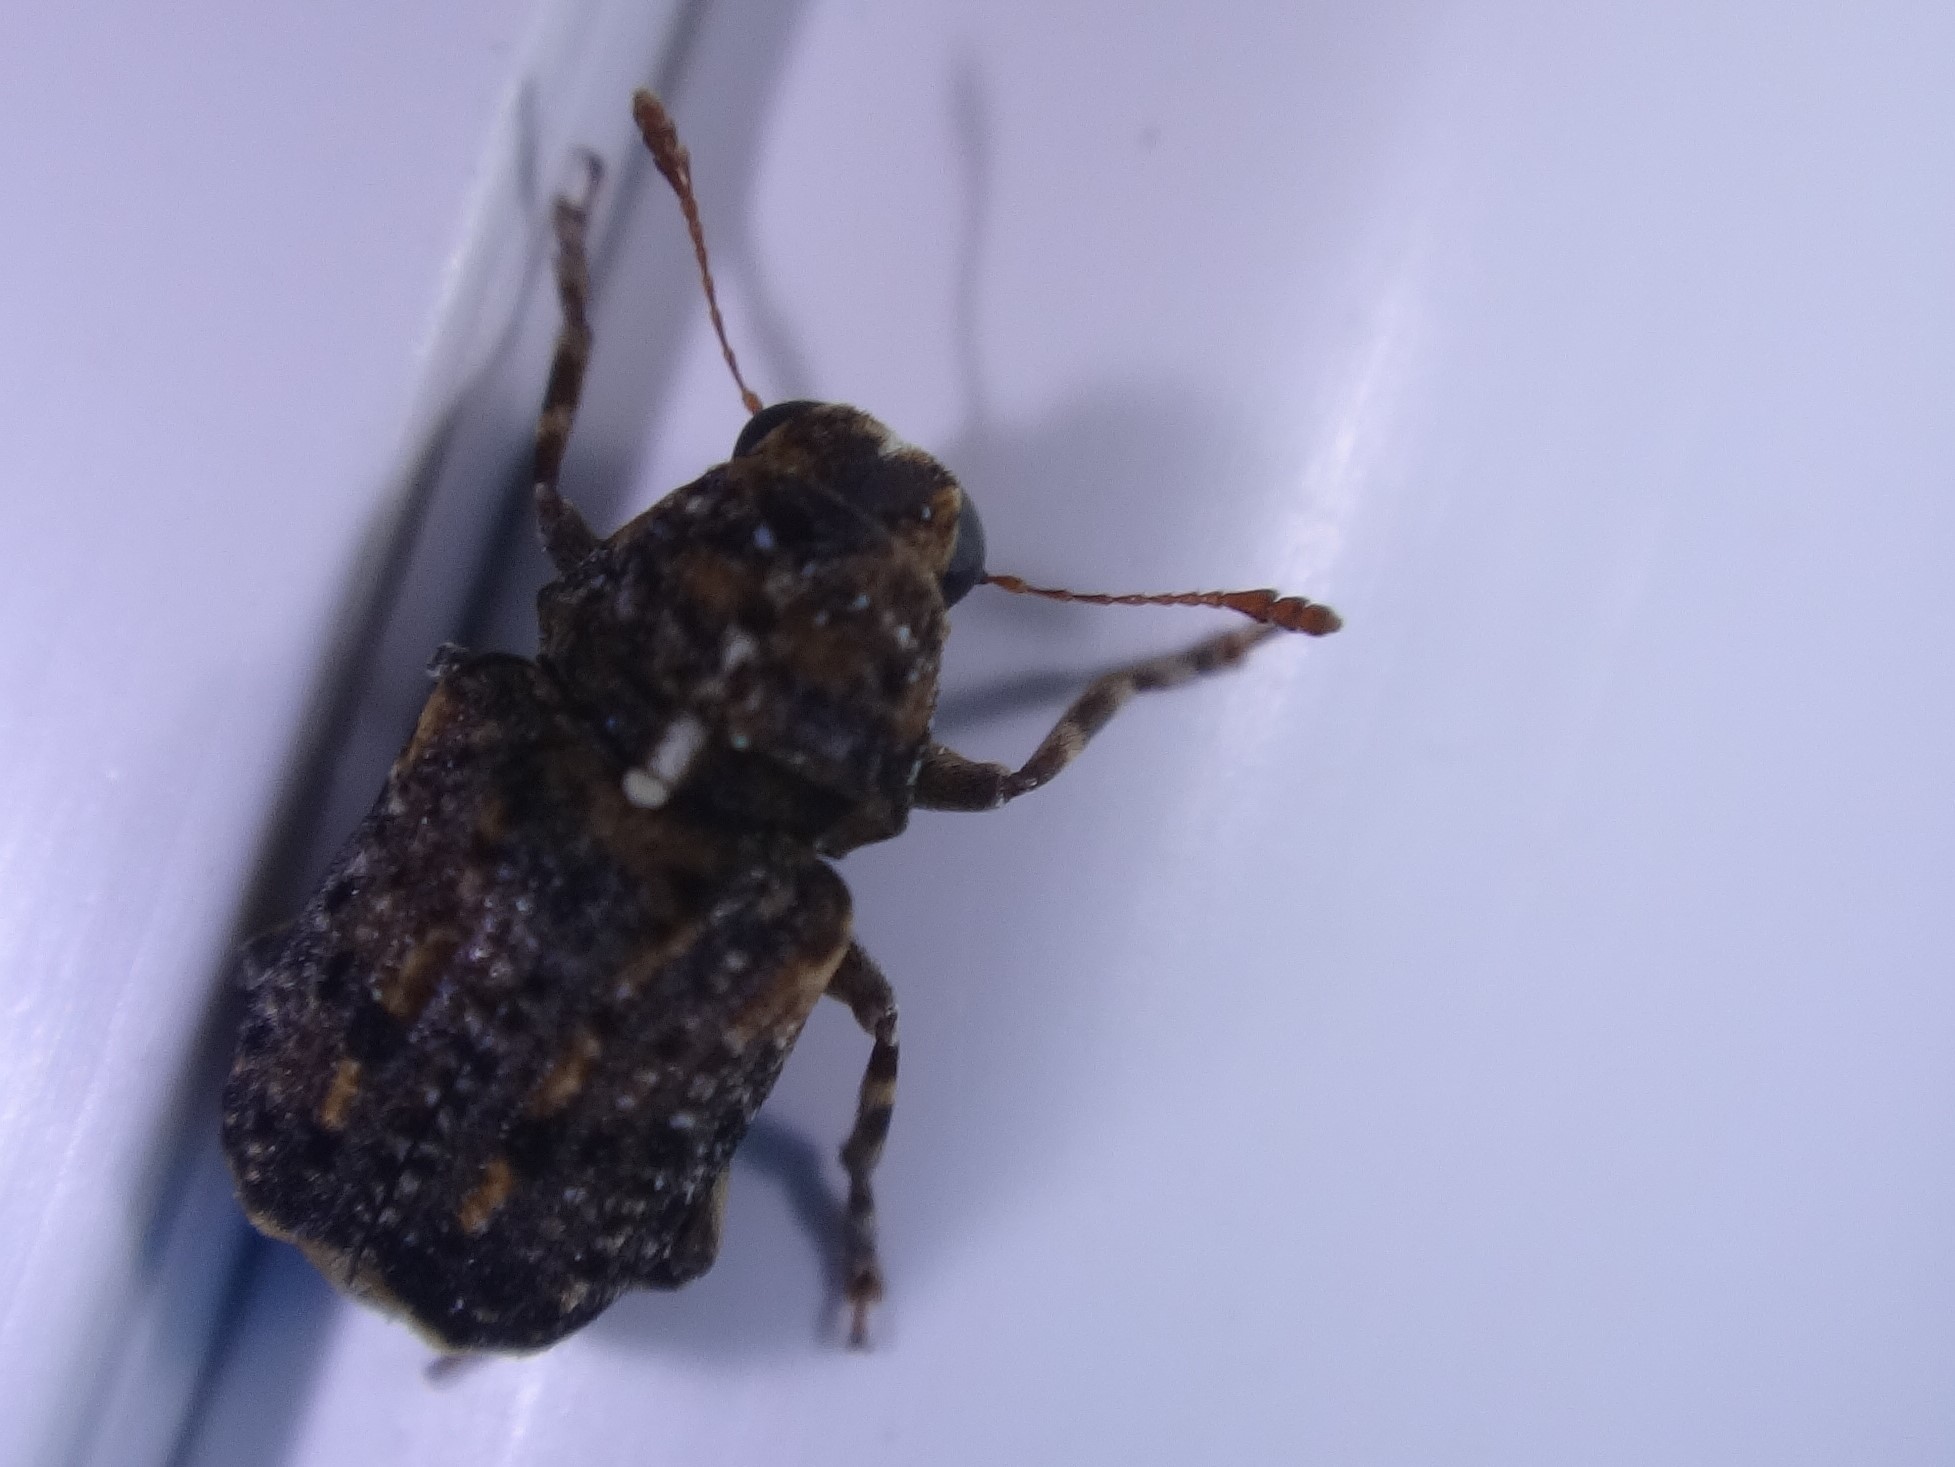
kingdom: Animalia
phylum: Arthropoda
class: Insecta
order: Coleoptera
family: Anthribidae
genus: Dissoleucas
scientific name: Dissoleucas niveirostris
